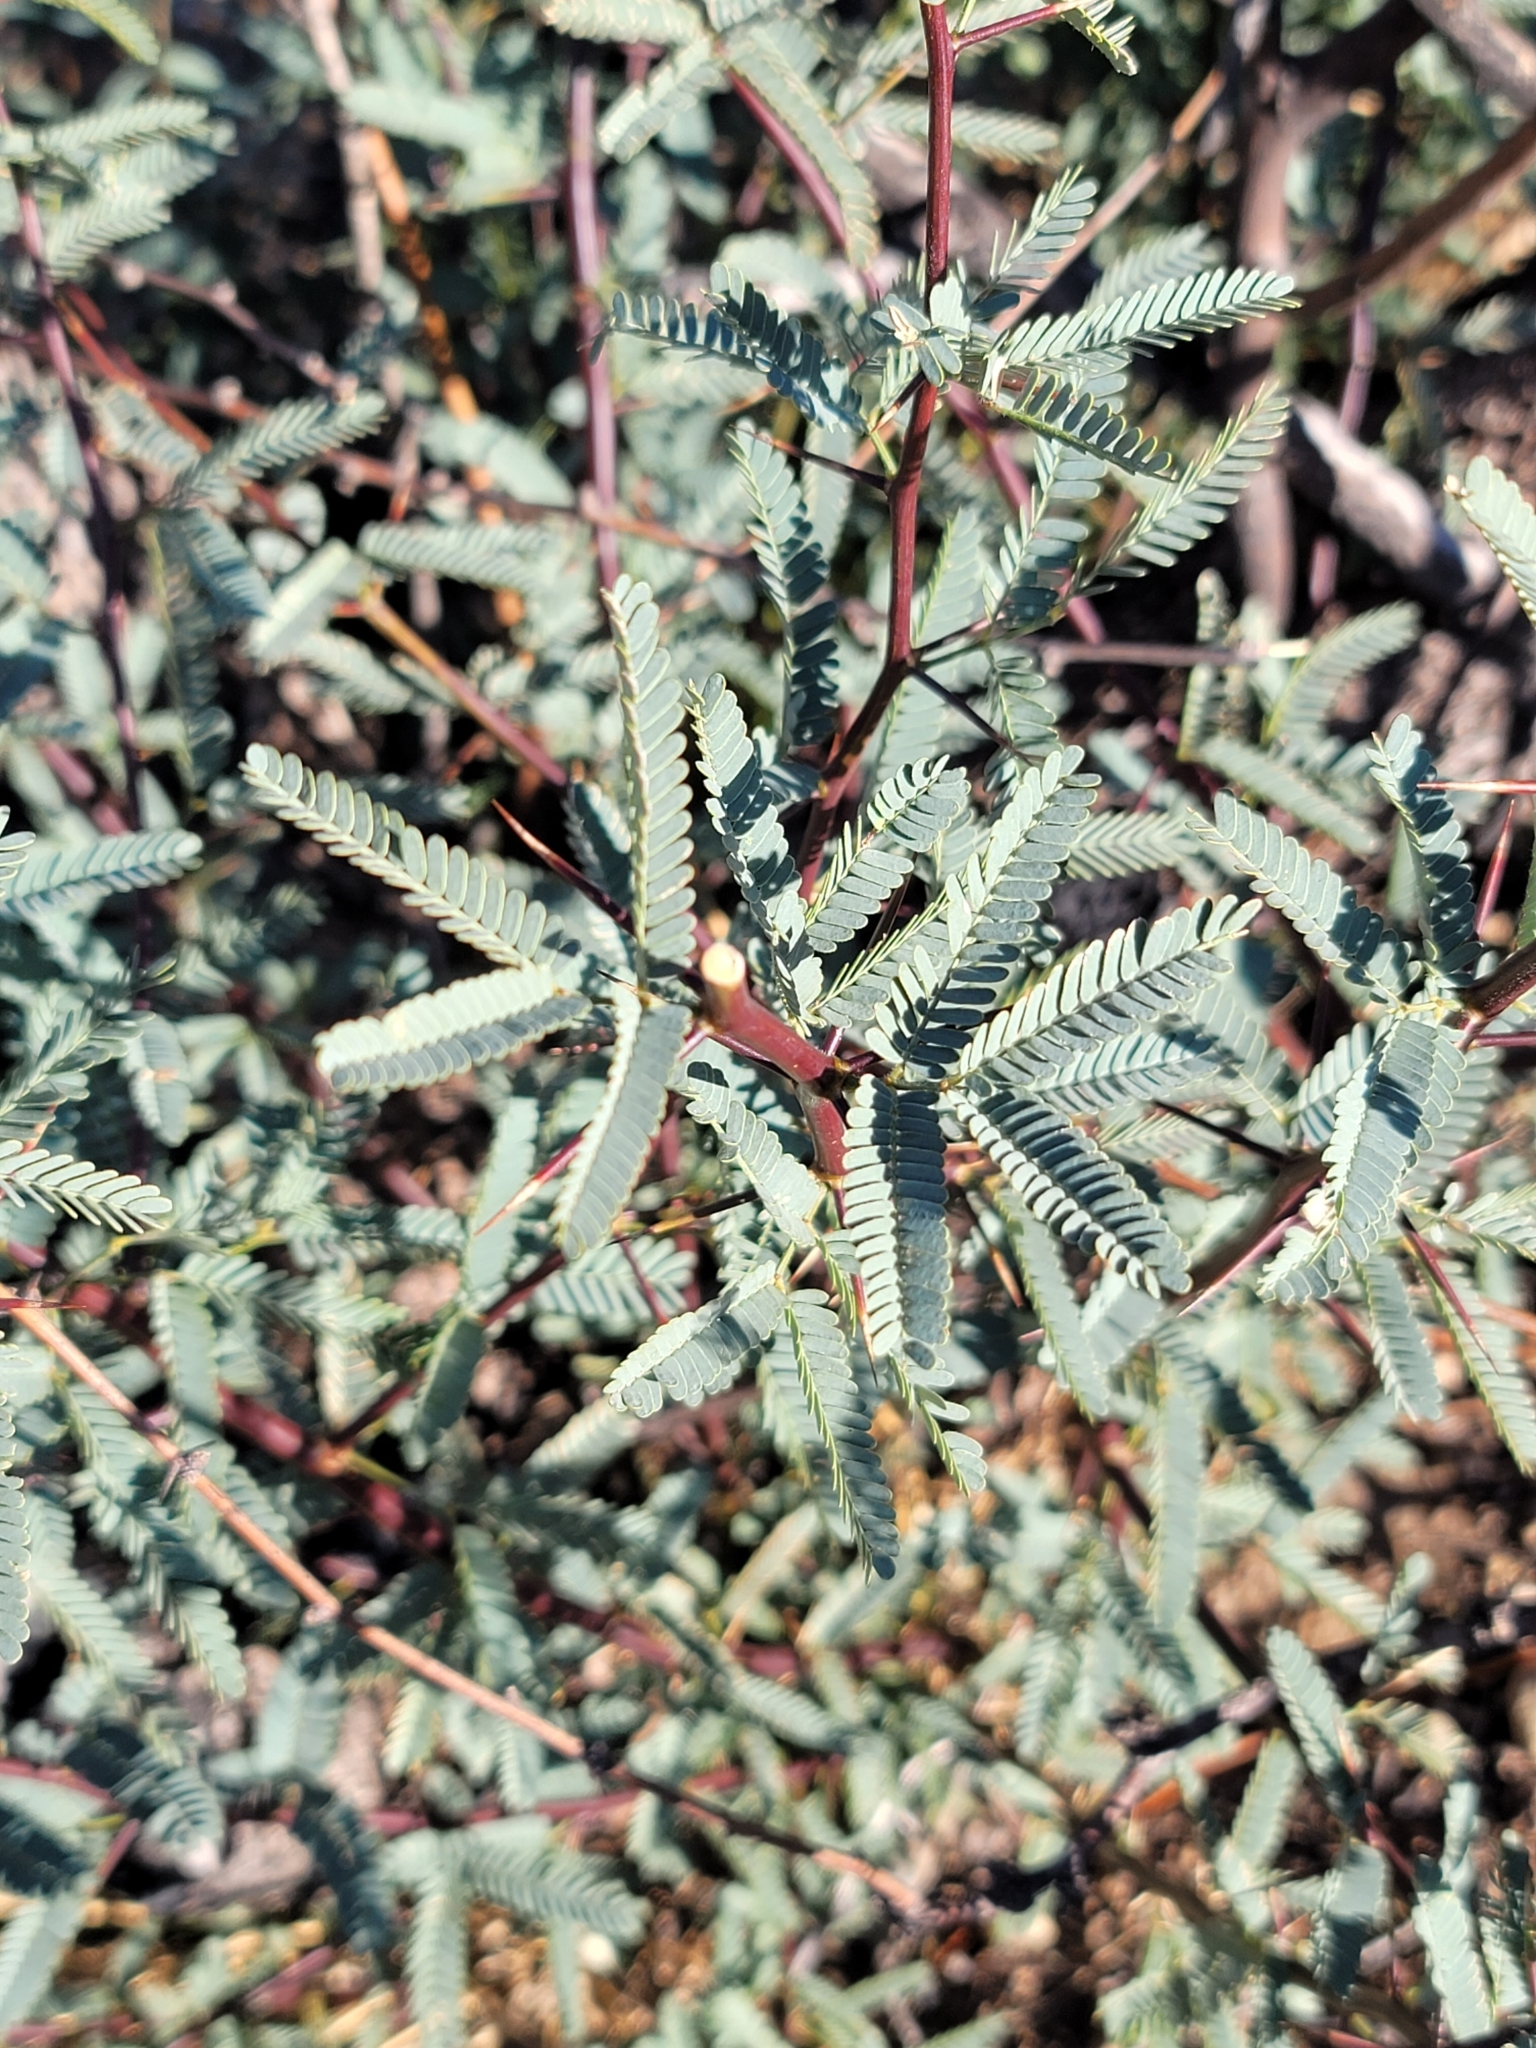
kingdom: Plantae
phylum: Tracheophyta
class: Magnoliopsida
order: Fabales
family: Fabaceae
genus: Prosopis
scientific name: Prosopis velutina
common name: Velvet mesquite
